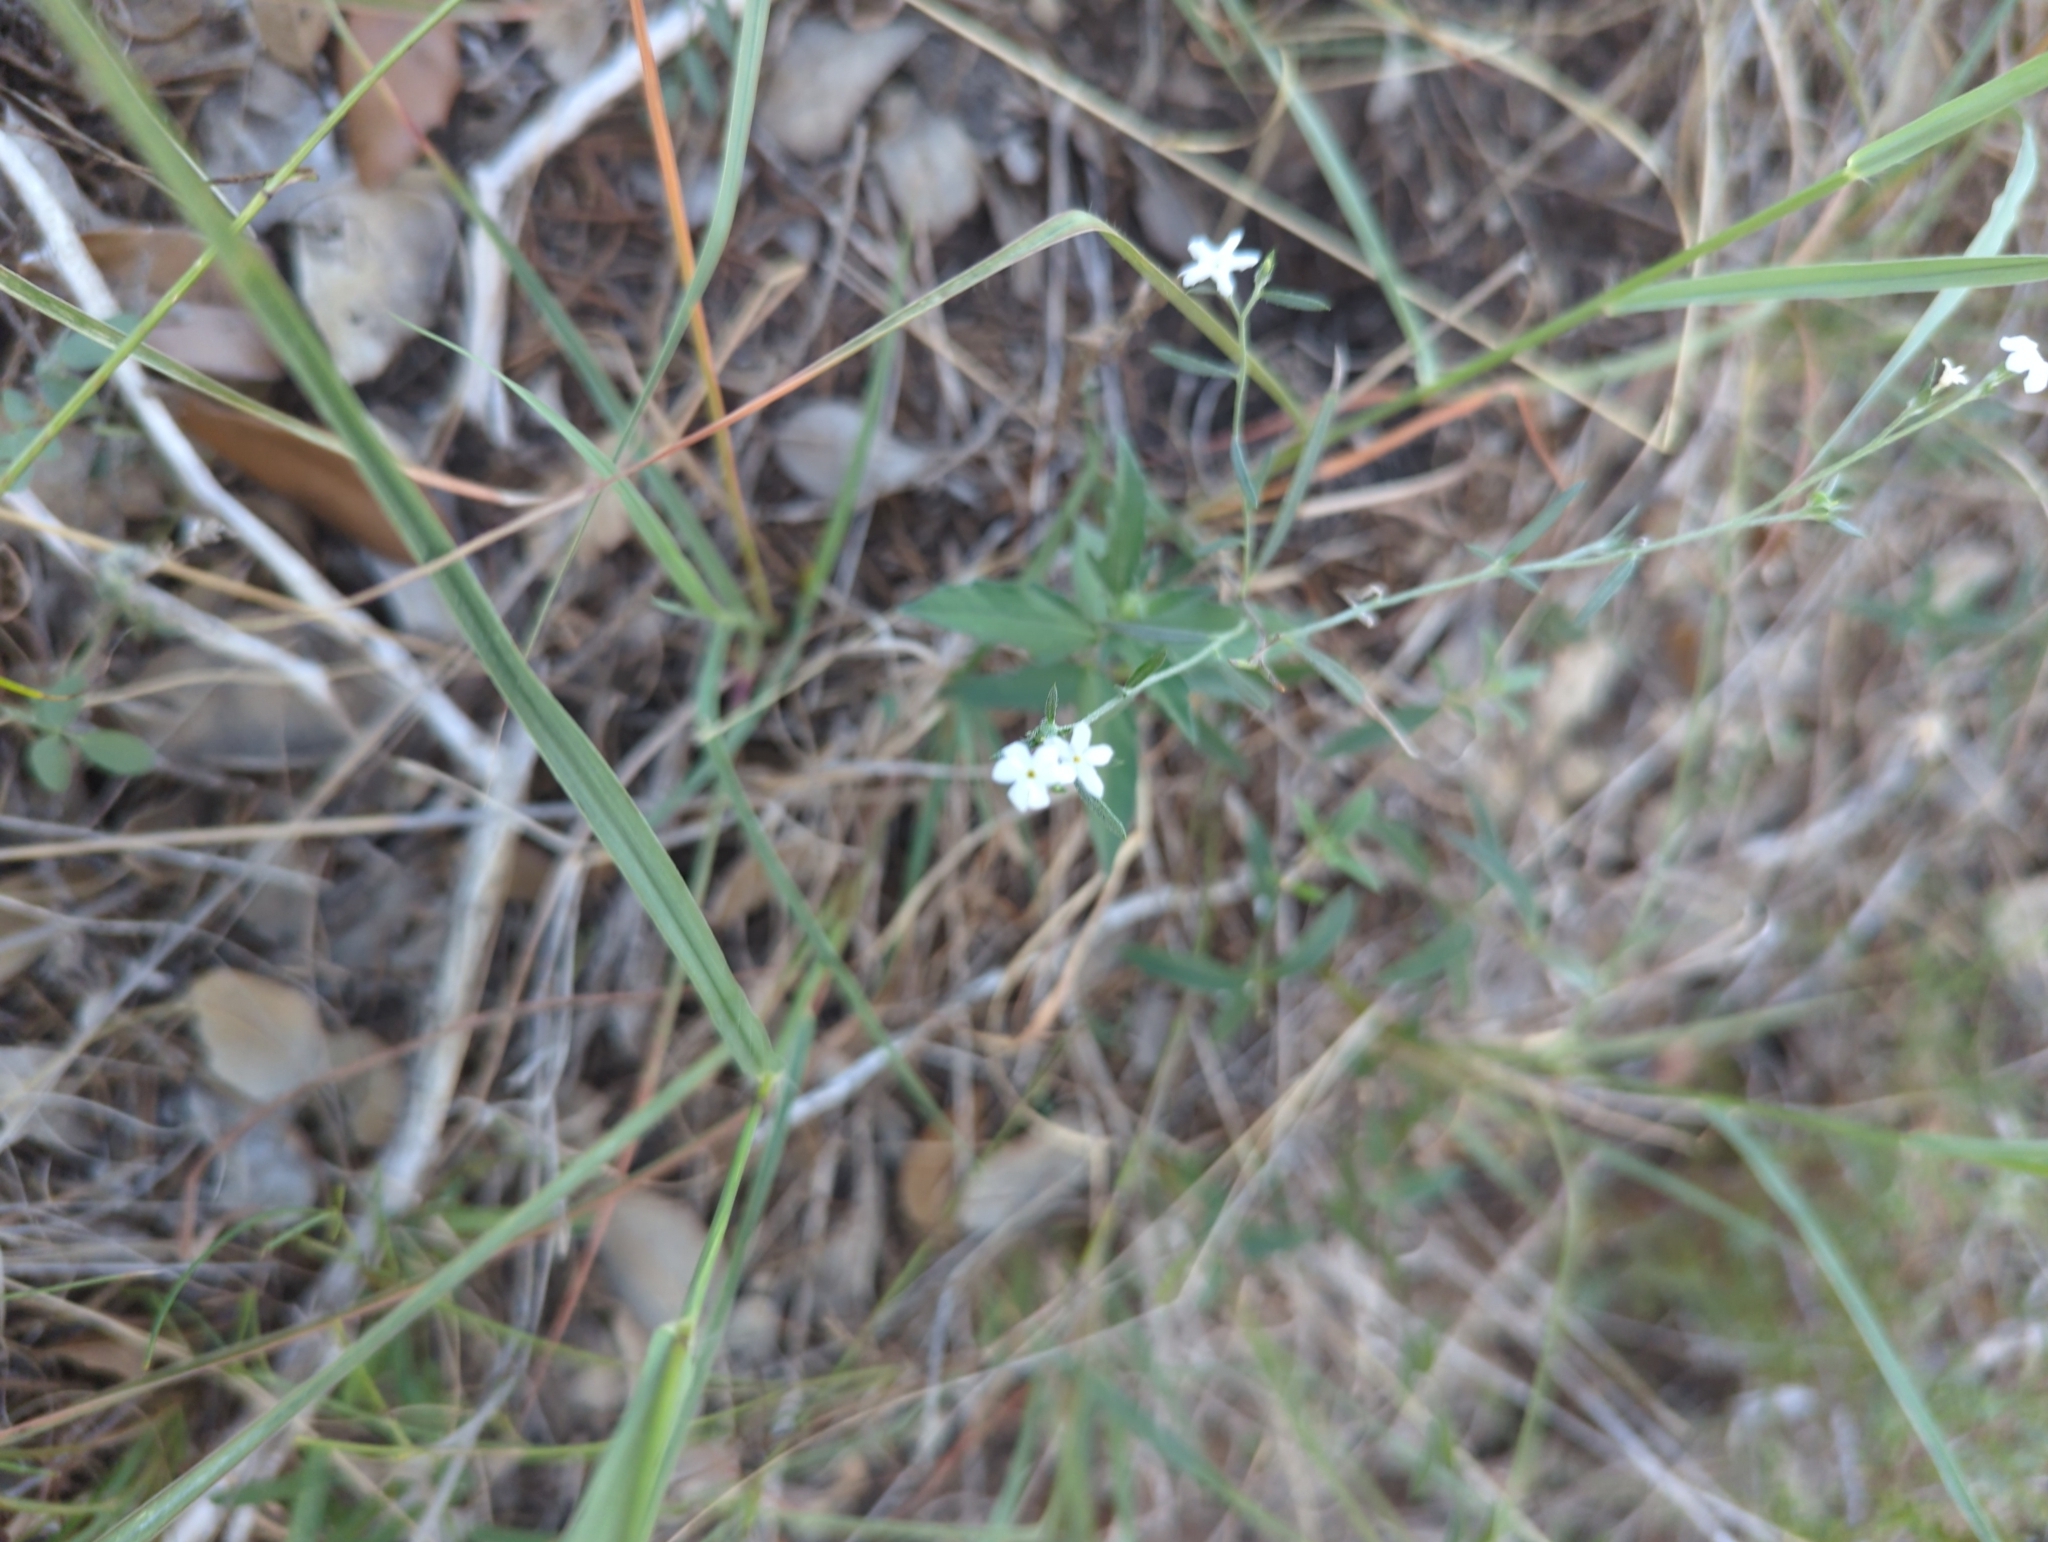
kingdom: Plantae
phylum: Tracheophyta
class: Magnoliopsida
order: Boraginales
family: Heliotropiaceae
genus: Euploca
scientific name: Euploca tenella
